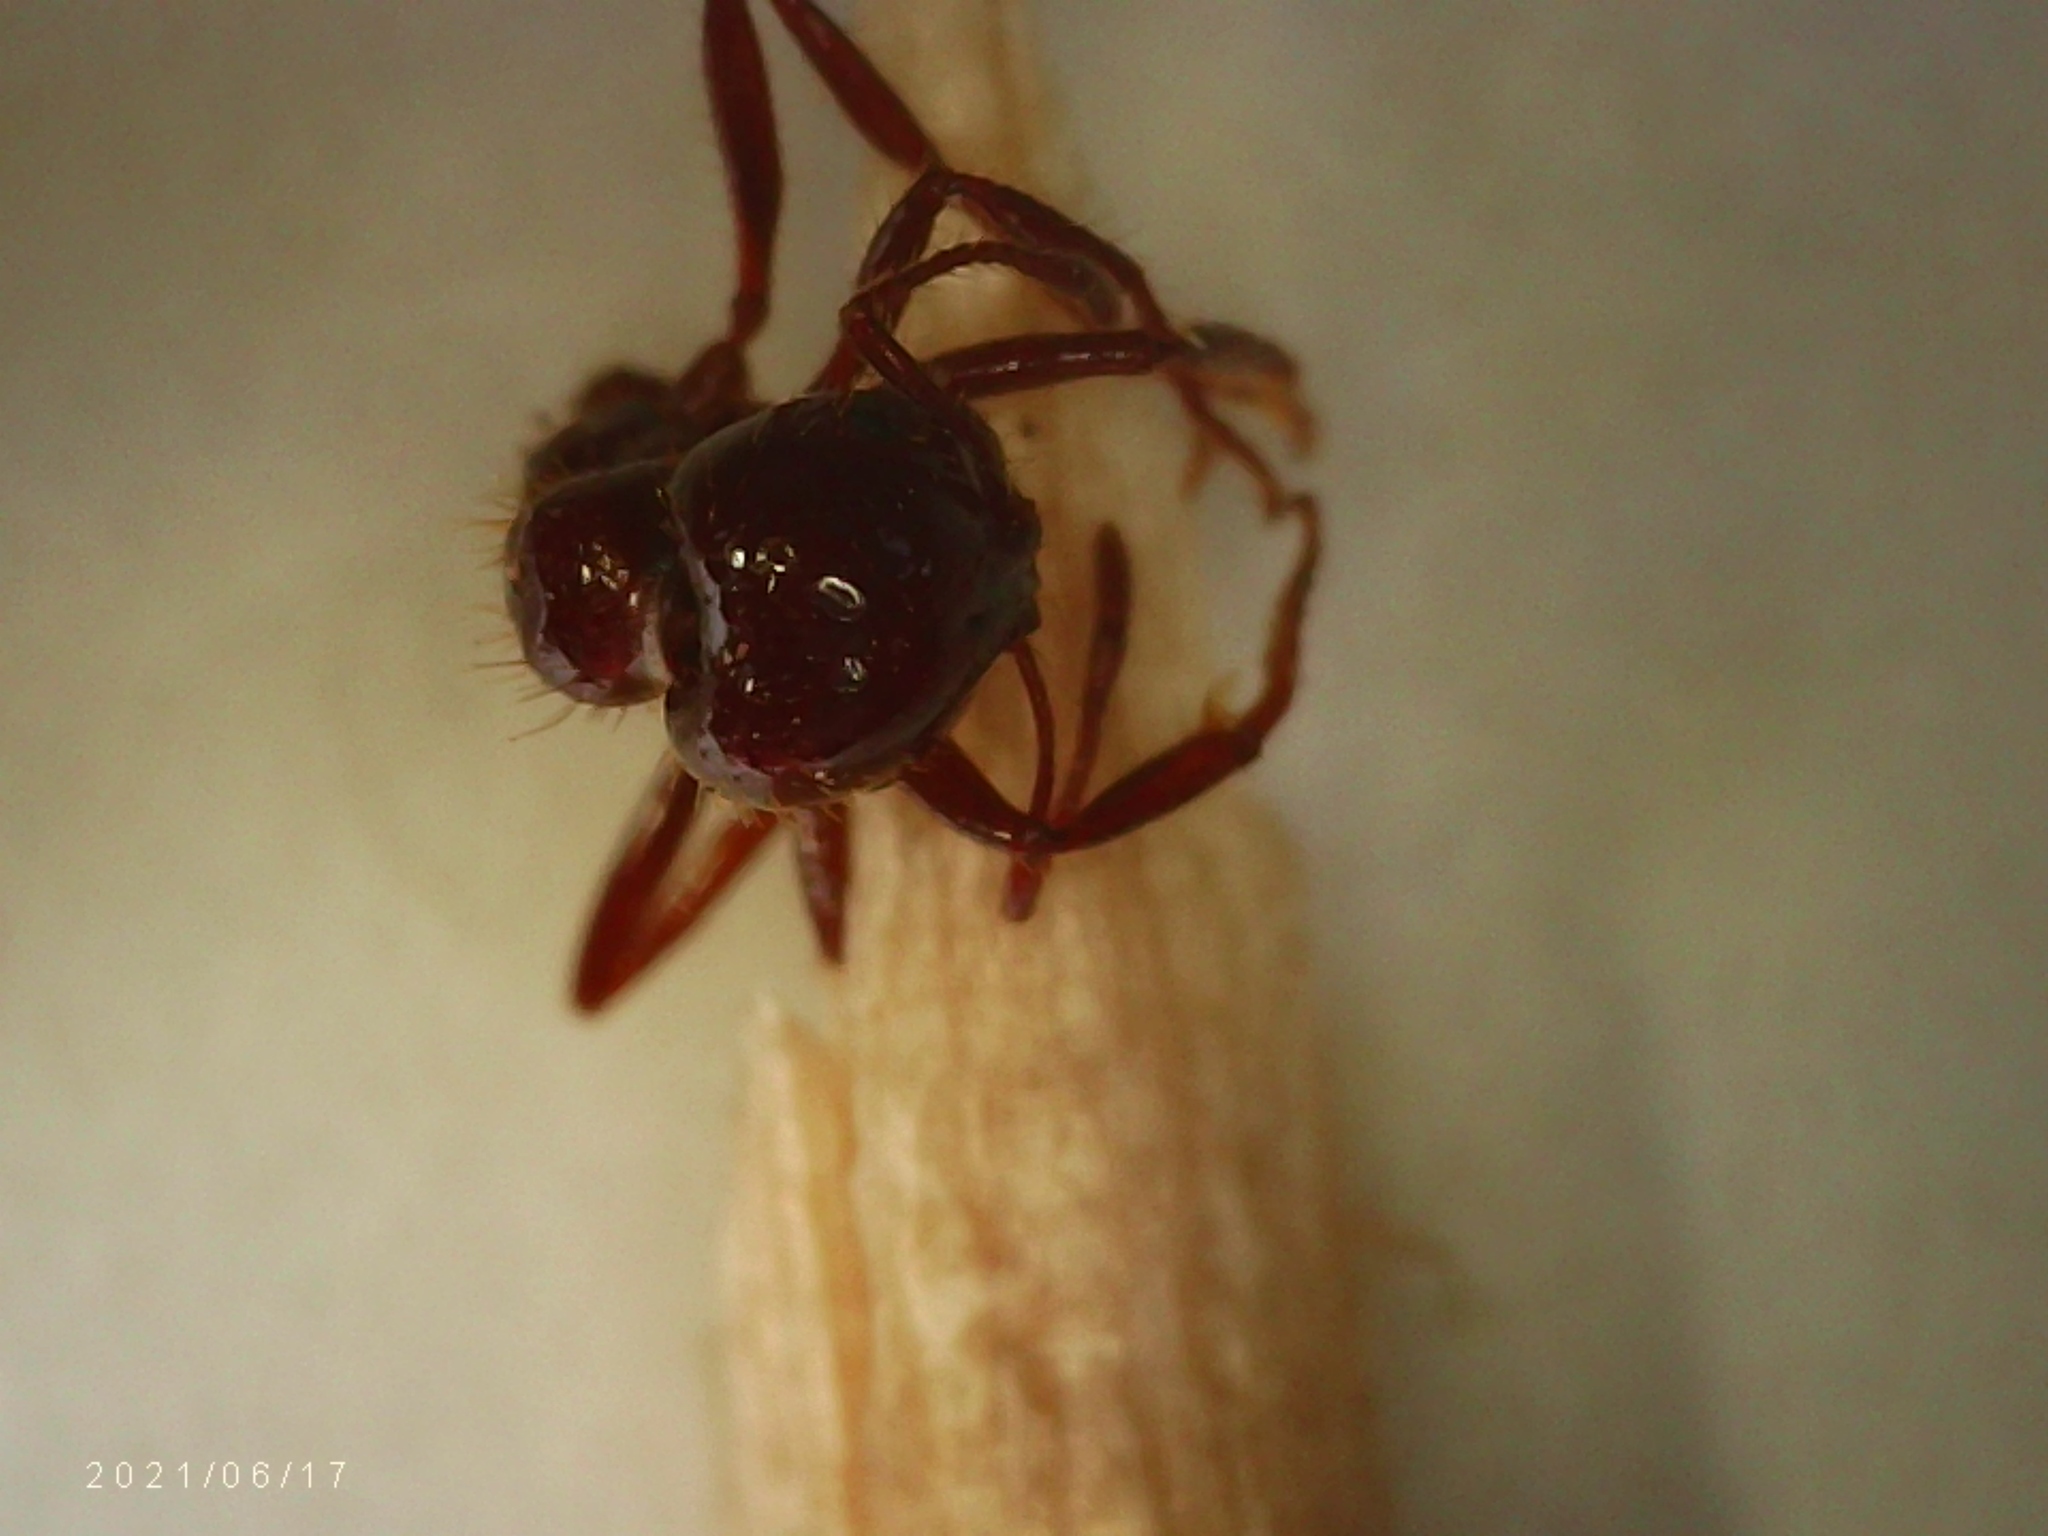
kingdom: Animalia
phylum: Arthropoda
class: Insecta
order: Hymenoptera
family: Formicidae
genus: Solenopsis
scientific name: Solenopsis invicta
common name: Red imported fire ant
